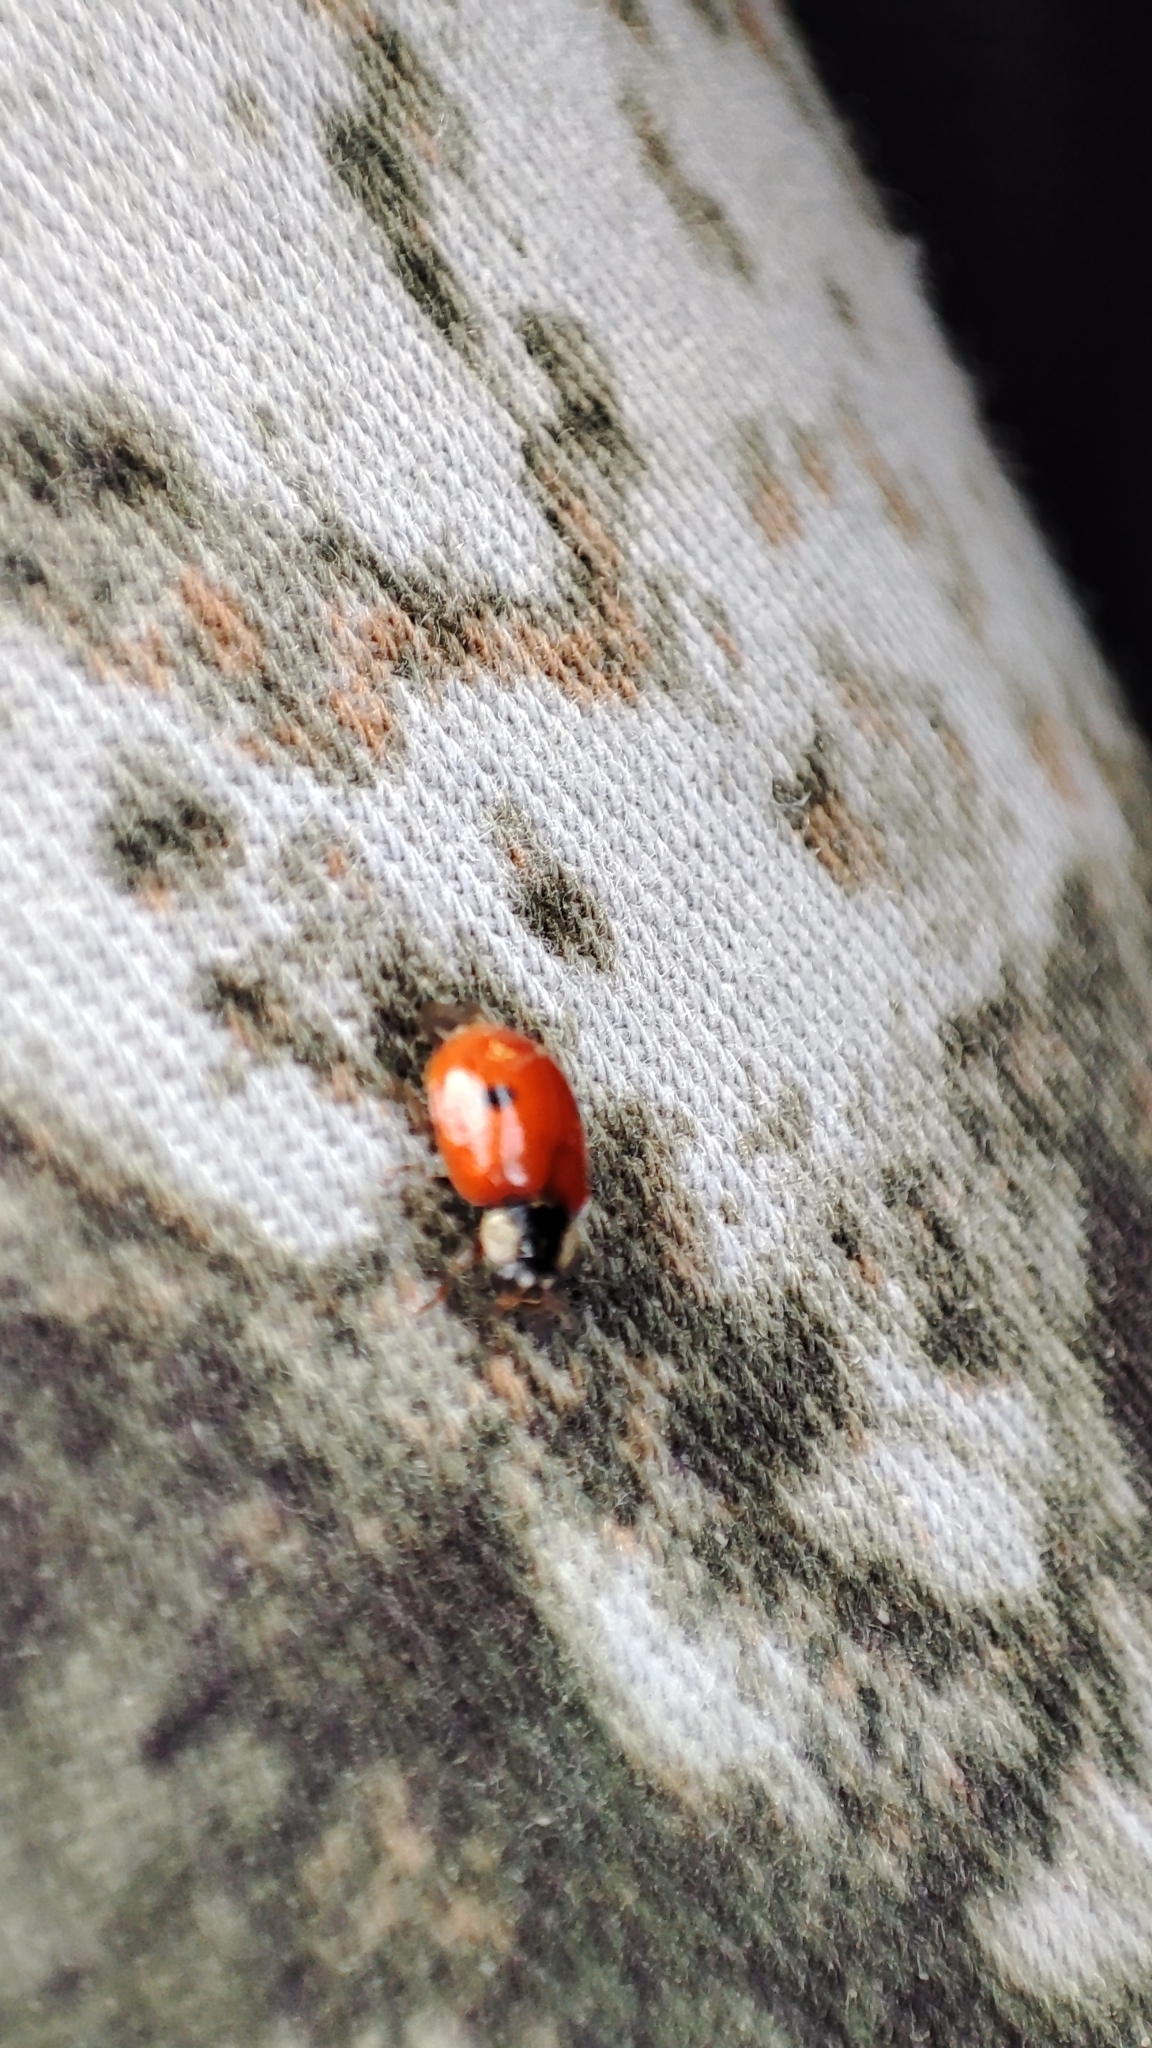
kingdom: Animalia
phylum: Arthropoda
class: Insecta
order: Coleoptera
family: Coccinellidae
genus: Adalia
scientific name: Adalia bipunctata
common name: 2-spot ladybird
